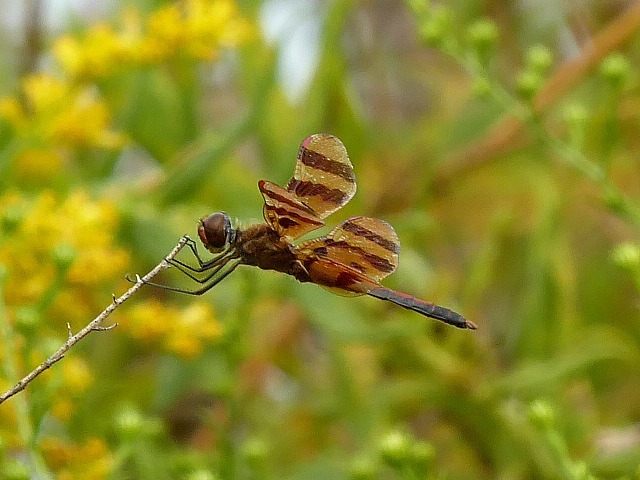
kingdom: Animalia
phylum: Arthropoda
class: Insecta
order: Odonata
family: Libellulidae
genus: Celithemis
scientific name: Celithemis eponina
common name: Halloween pennant
